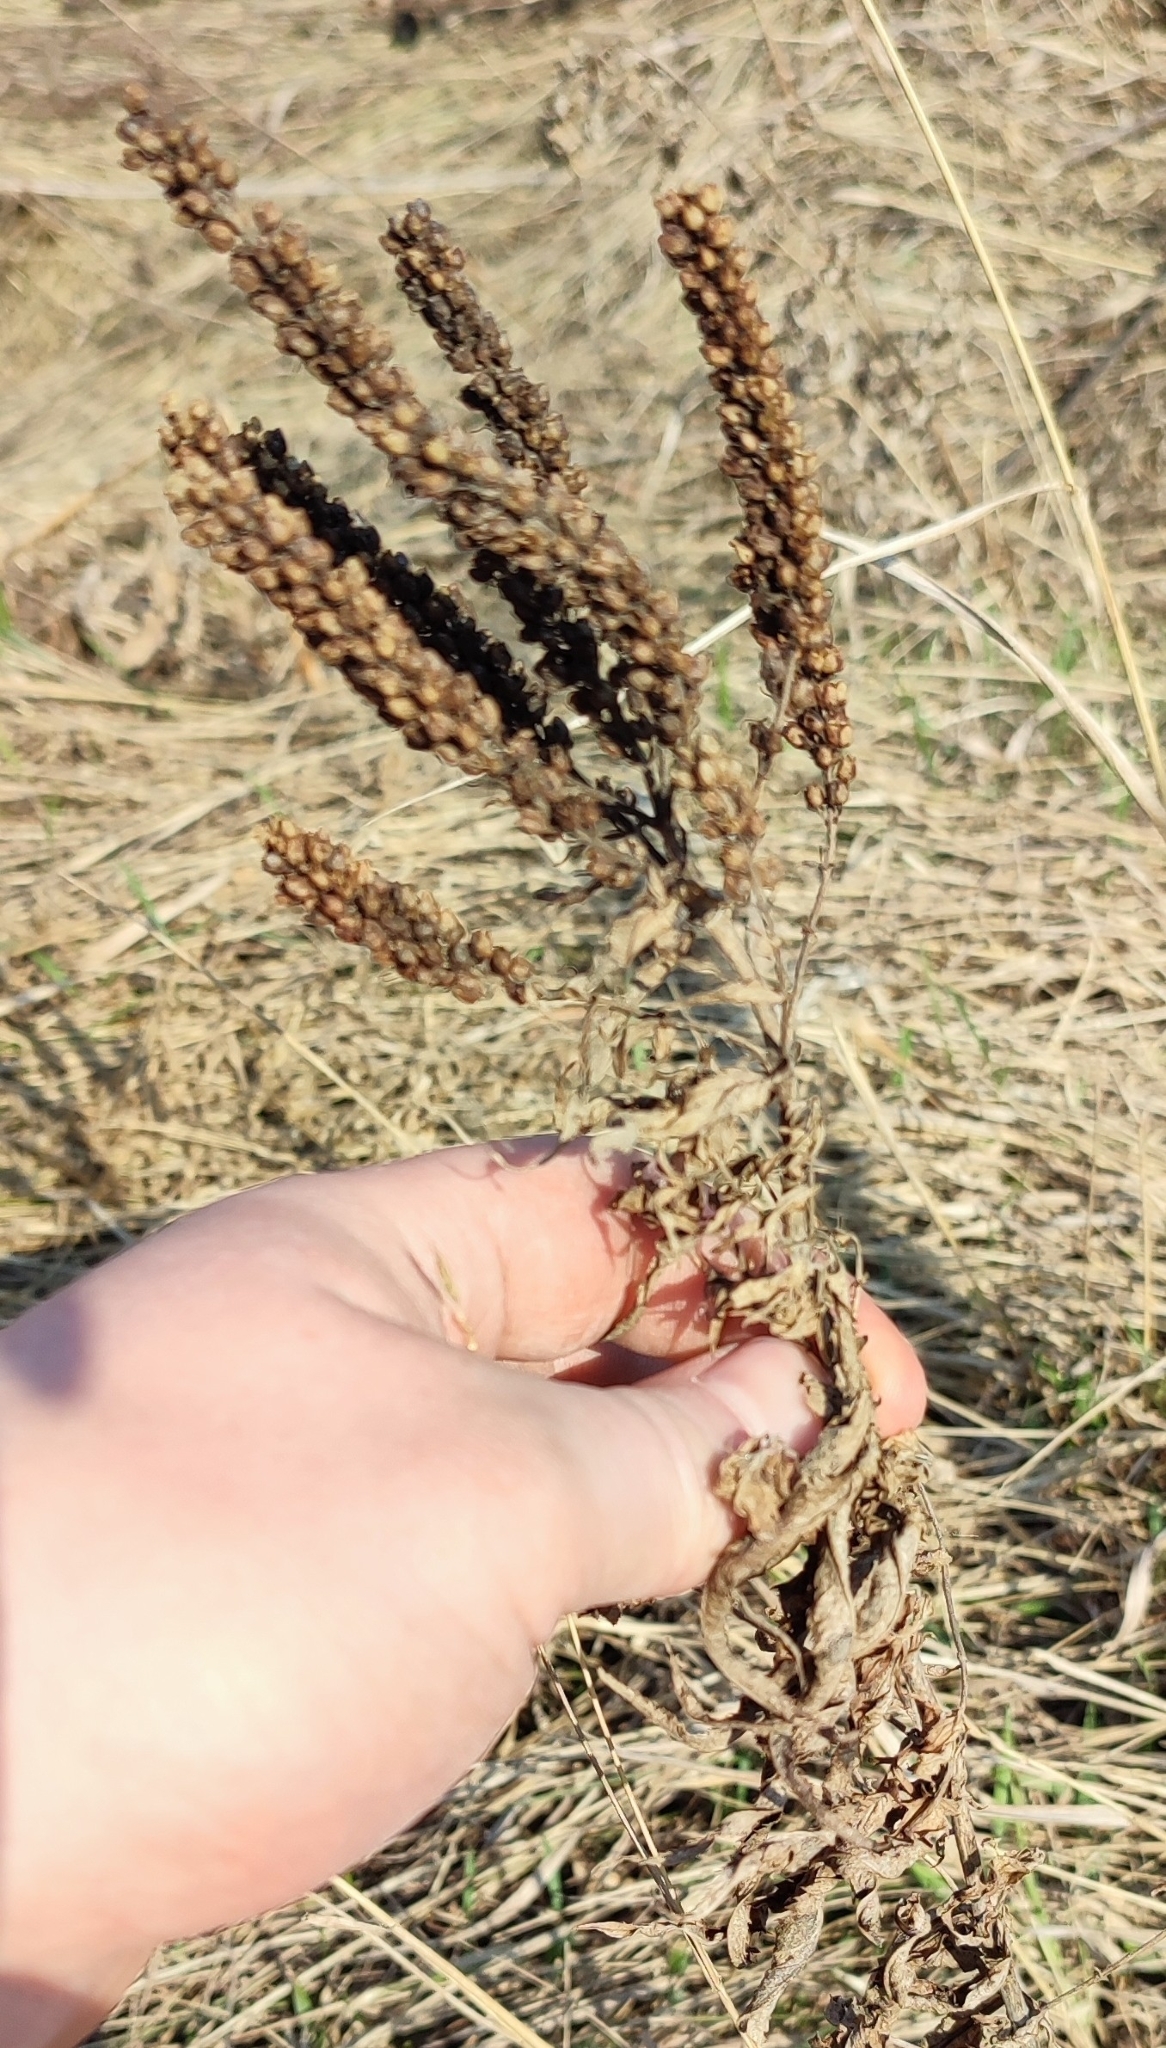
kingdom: Plantae
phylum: Tracheophyta
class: Magnoliopsida
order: Lamiales
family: Plantaginaceae
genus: Veronica
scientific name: Veronica longifolia
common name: Garden speedwell
